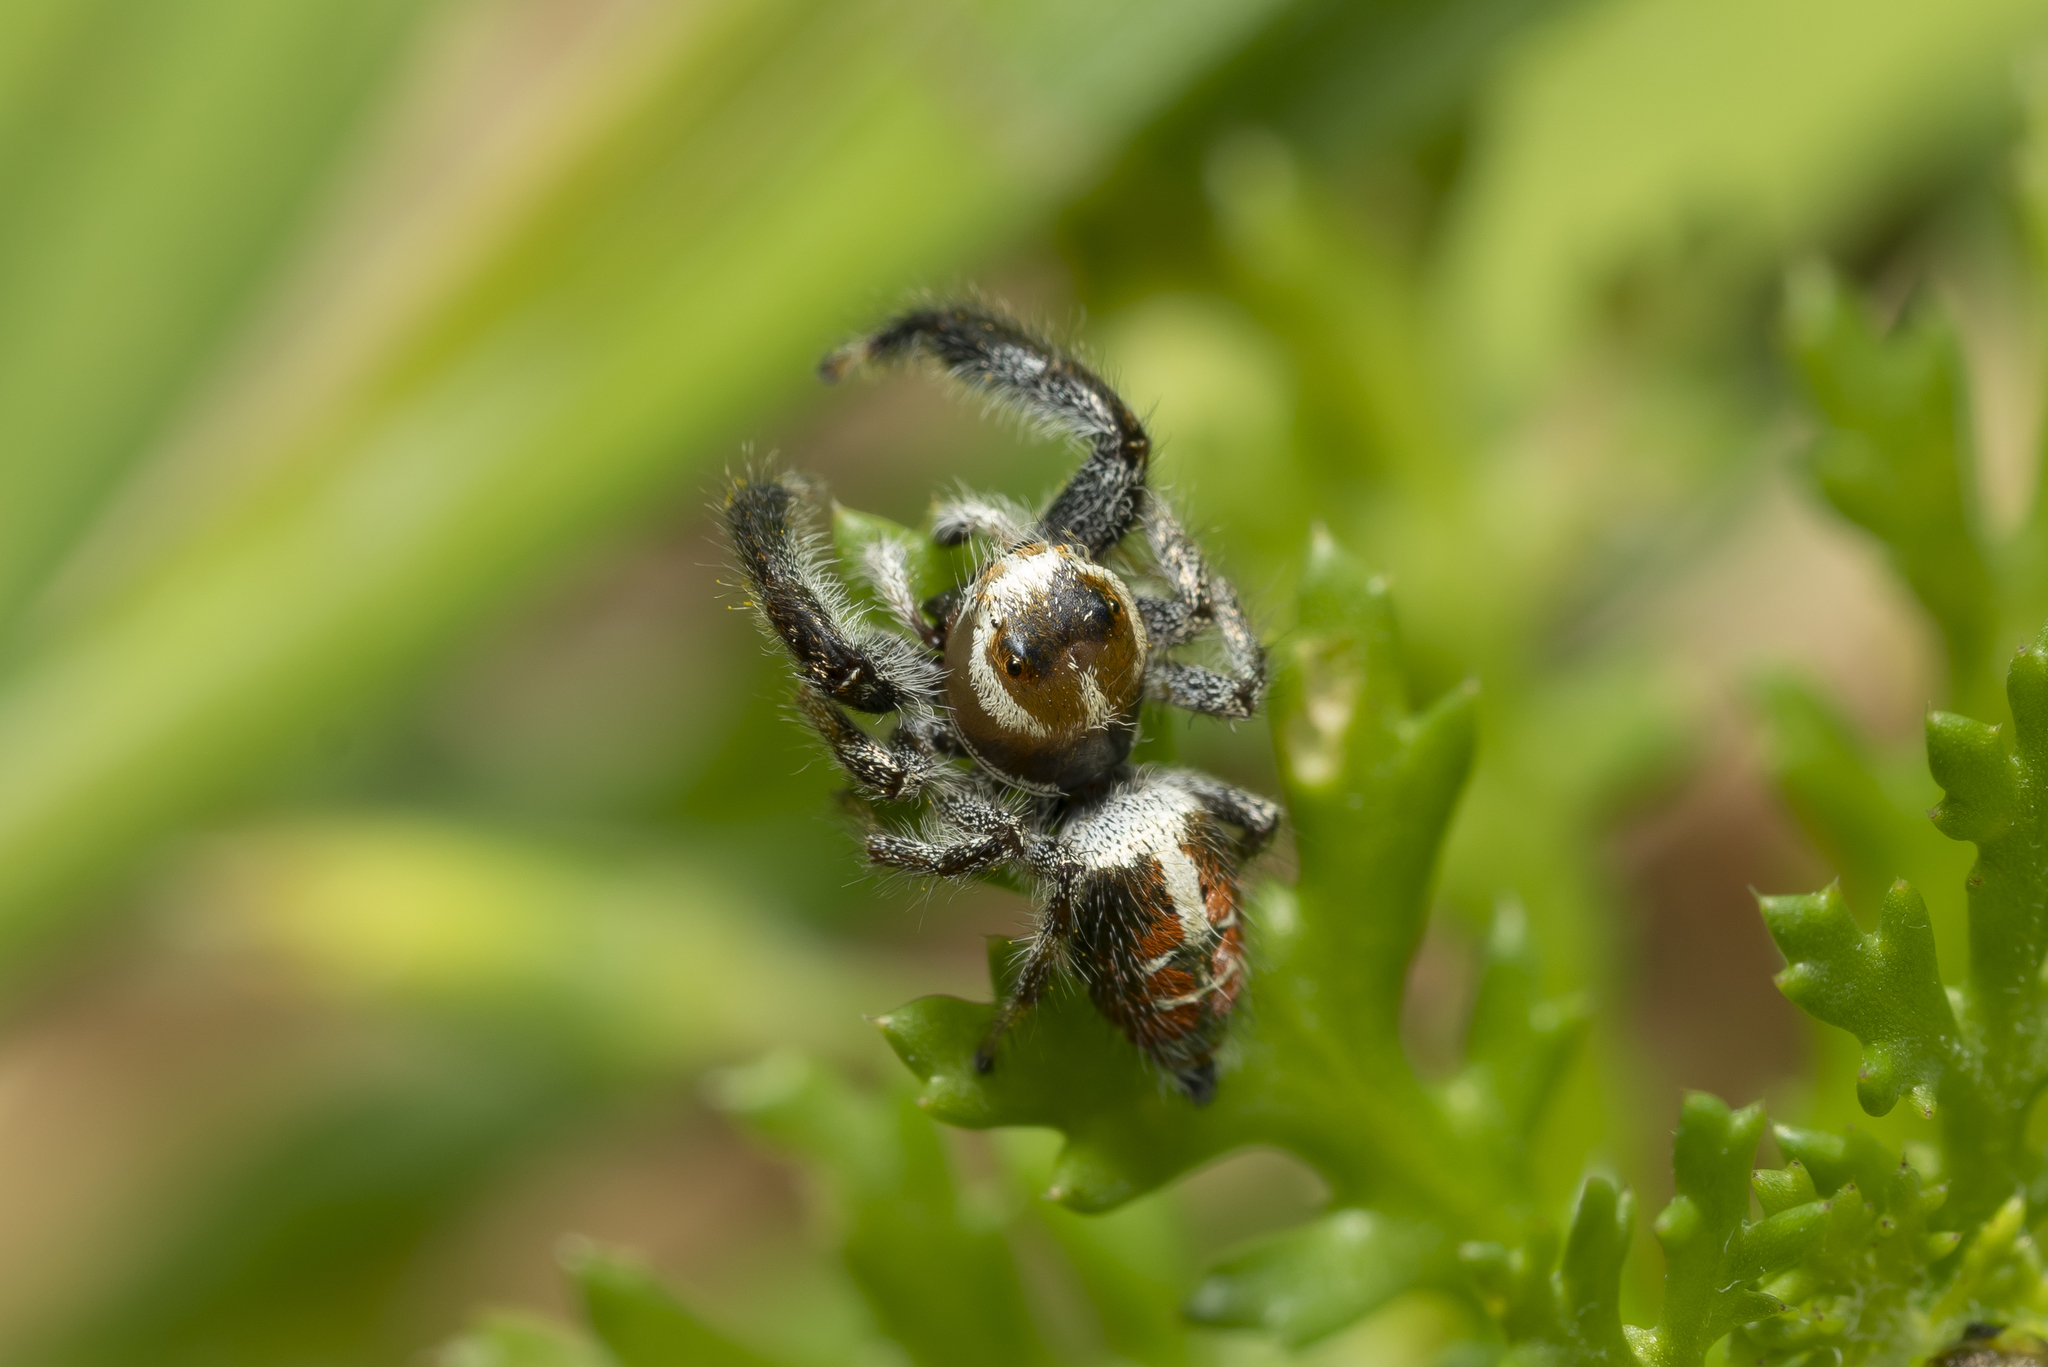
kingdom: Animalia
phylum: Arthropoda
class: Arachnida
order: Araneae
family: Salticidae
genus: Thyene
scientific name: Thyene imperialis
